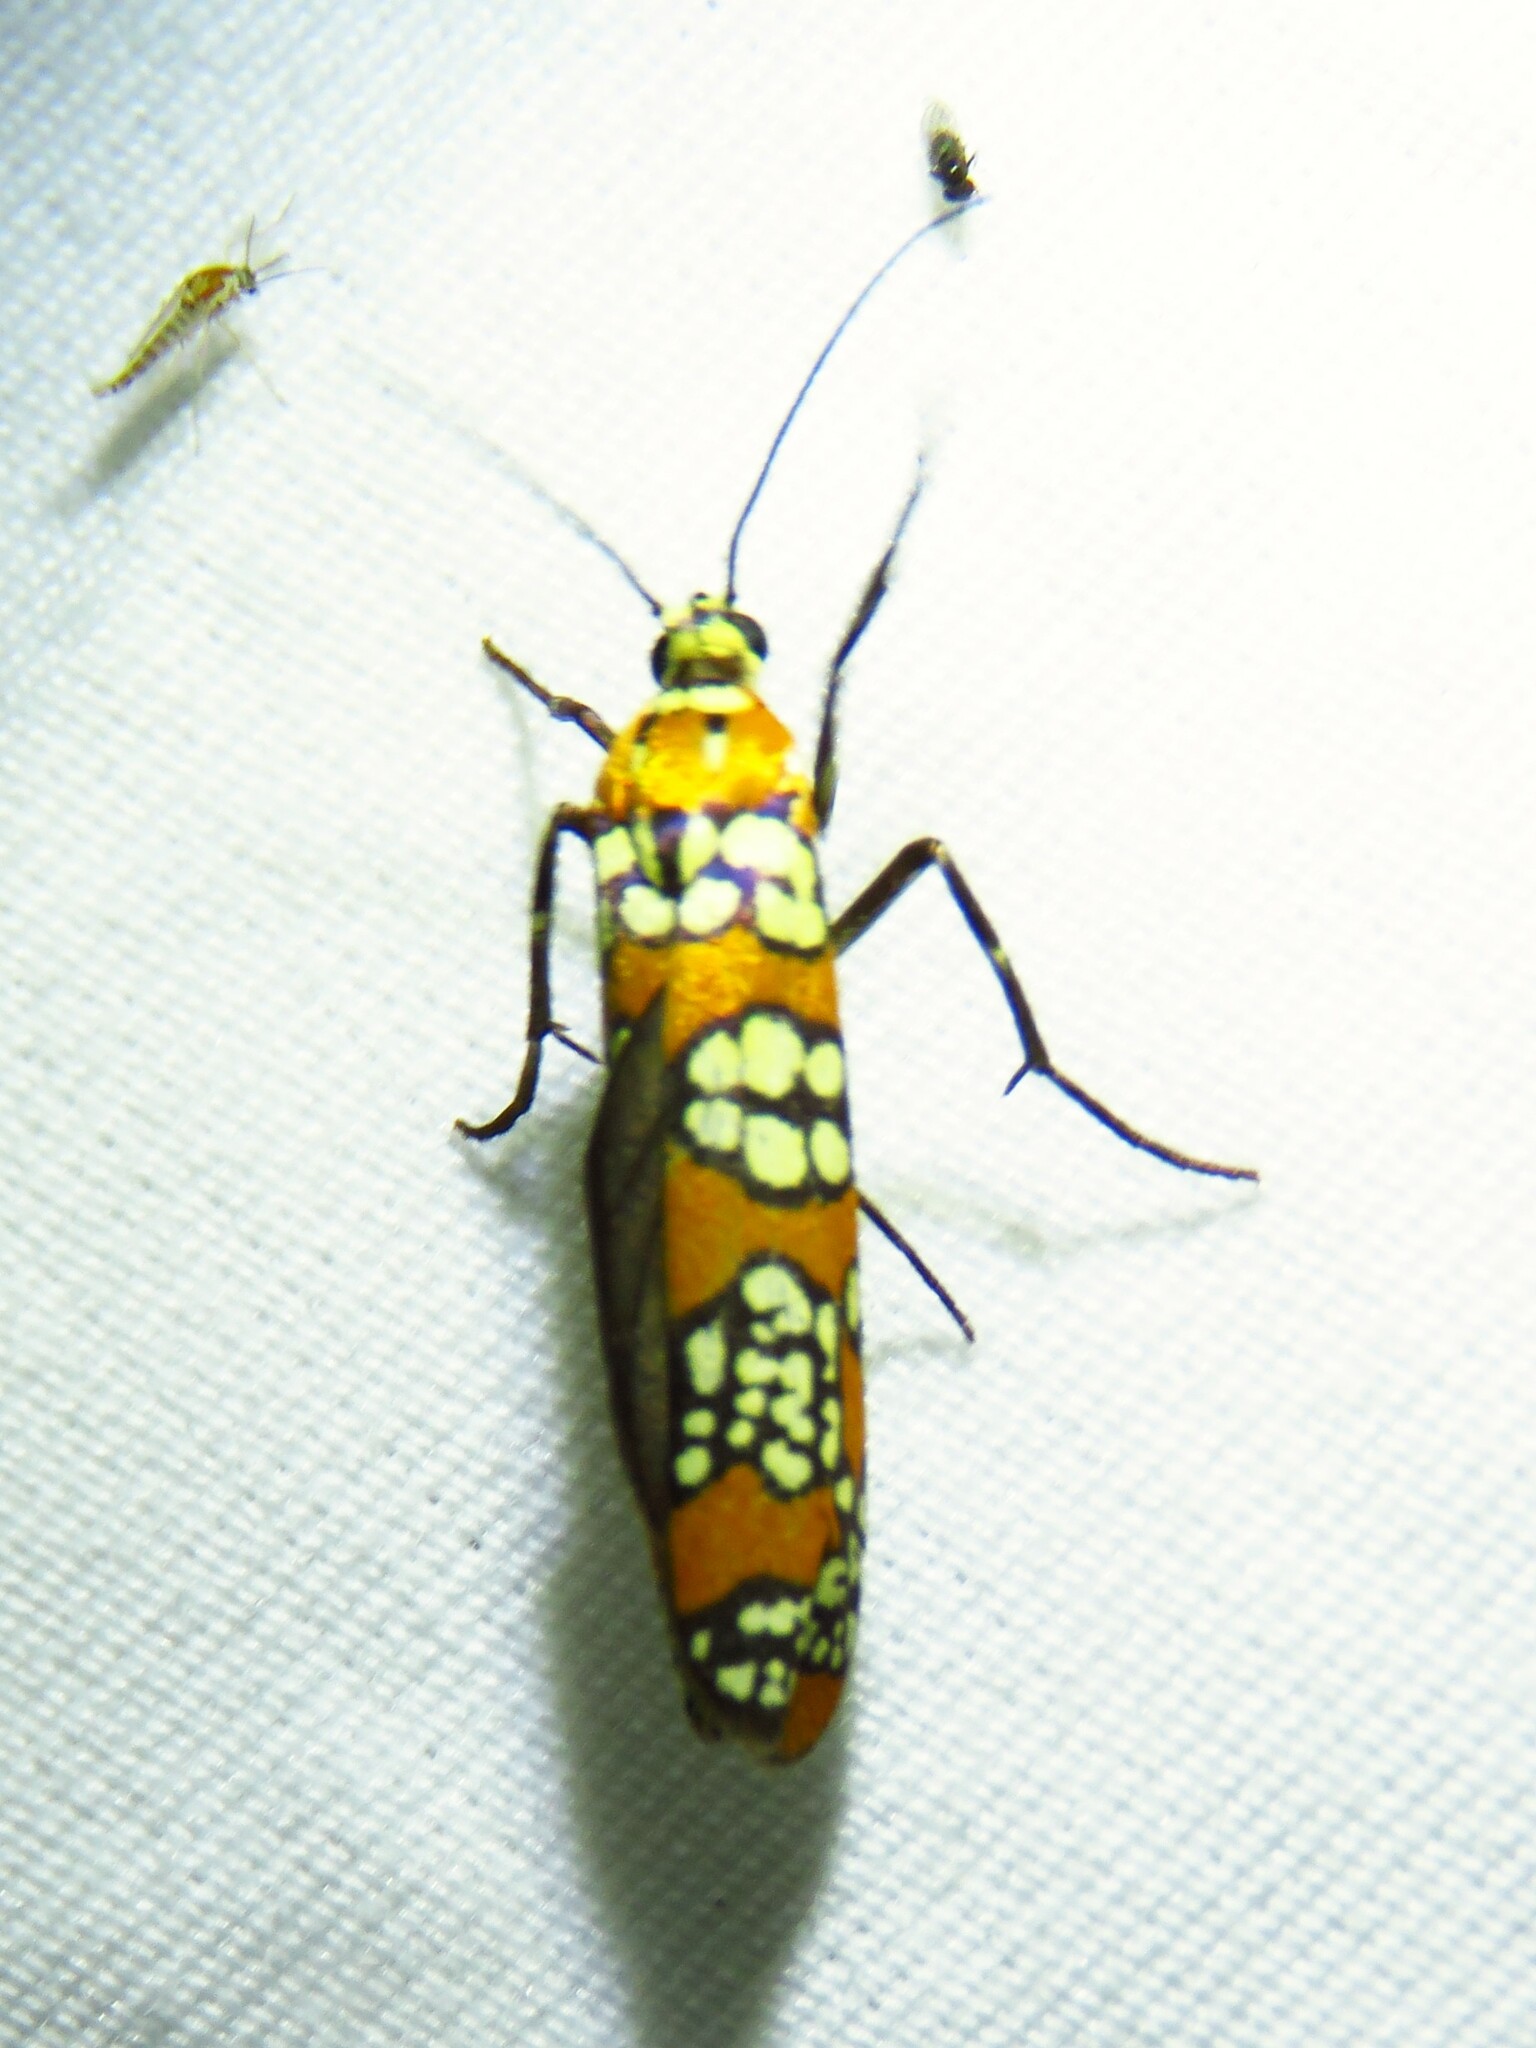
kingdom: Animalia
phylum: Arthropoda
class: Insecta
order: Lepidoptera
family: Attevidae
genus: Atteva
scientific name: Atteva punctella
